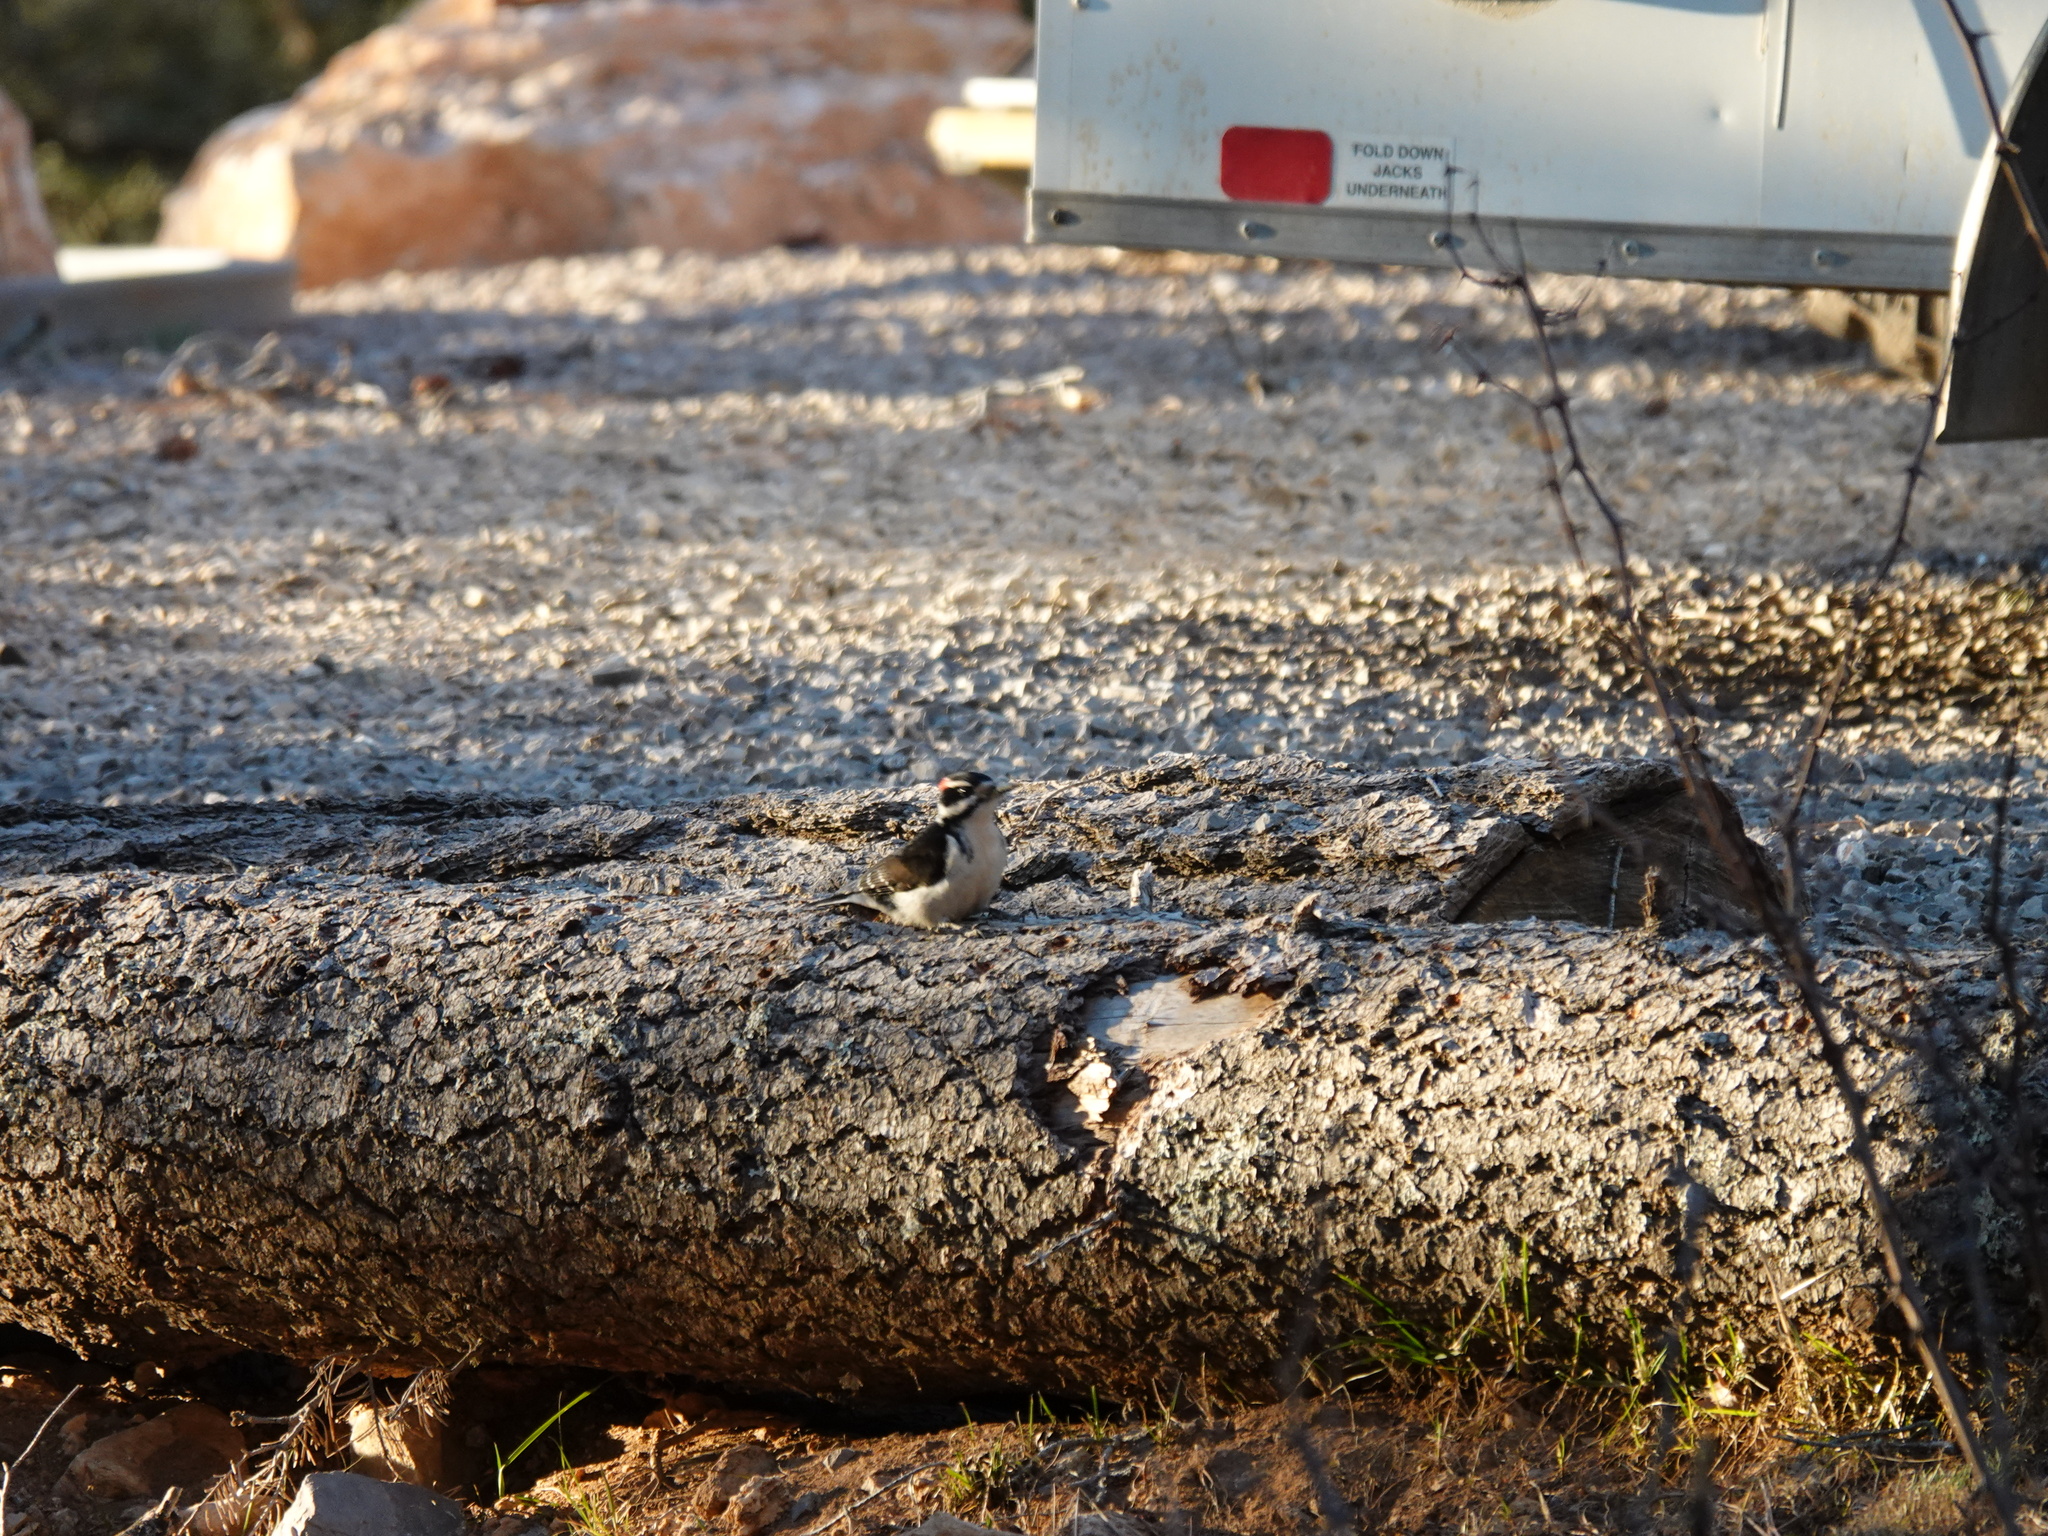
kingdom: Animalia
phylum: Chordata
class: Aves
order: Piciformes
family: Picidae
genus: Leuconotopicus
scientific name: Leuconotopicus villosus
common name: Hairy woodpecker
